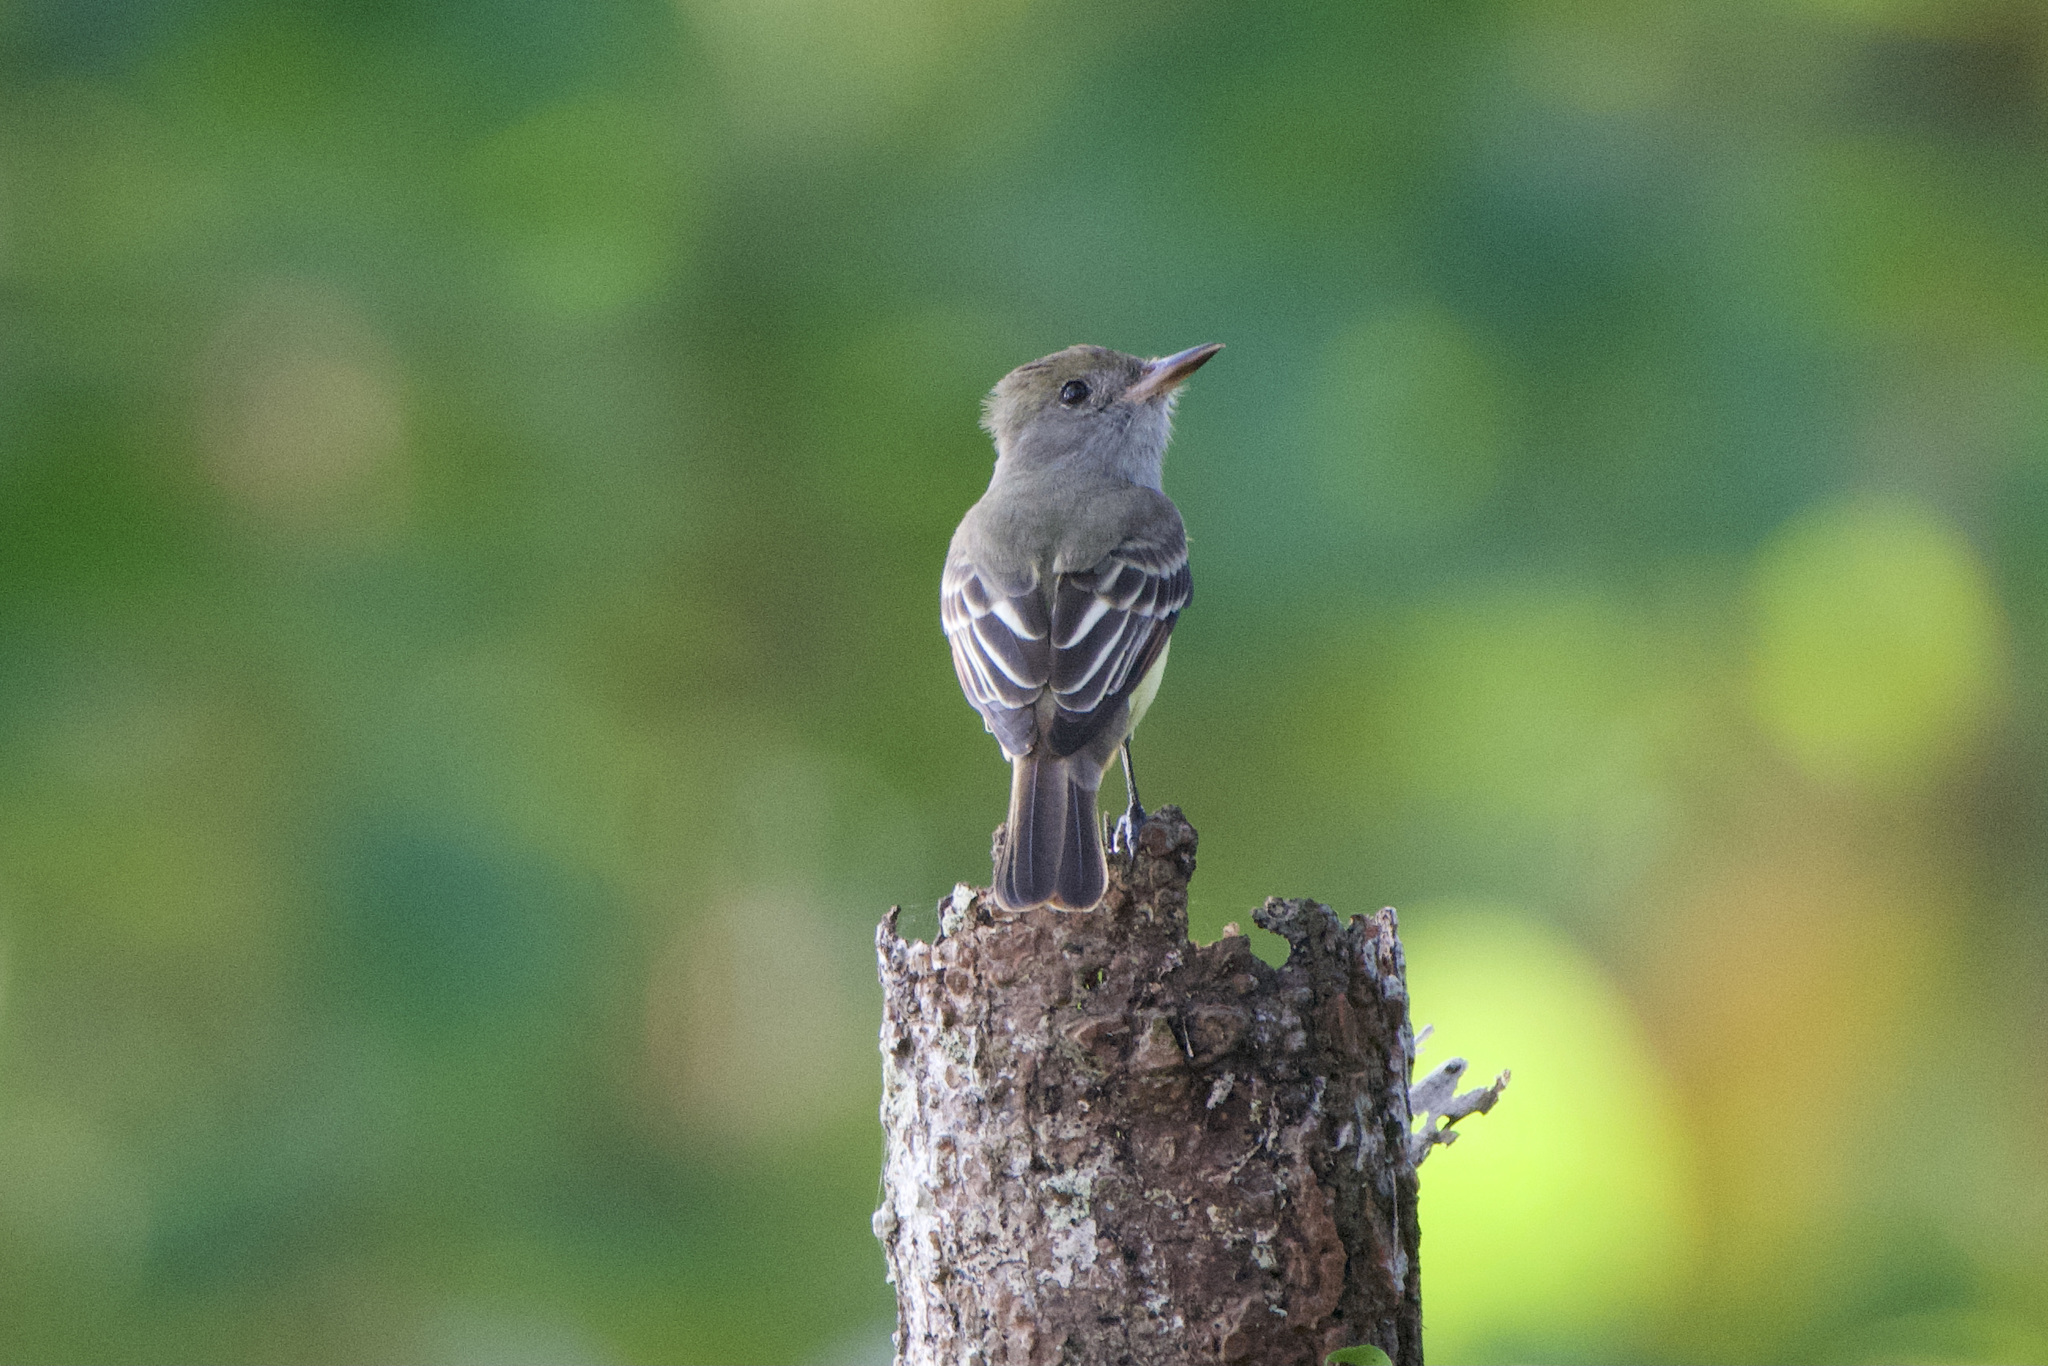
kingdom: Animalia
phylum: Chordata
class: Aves
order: Passeriformes
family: Tyrannidae
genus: Myiarchus
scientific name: Myiarchus crinitus
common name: Great crested flycatcher
